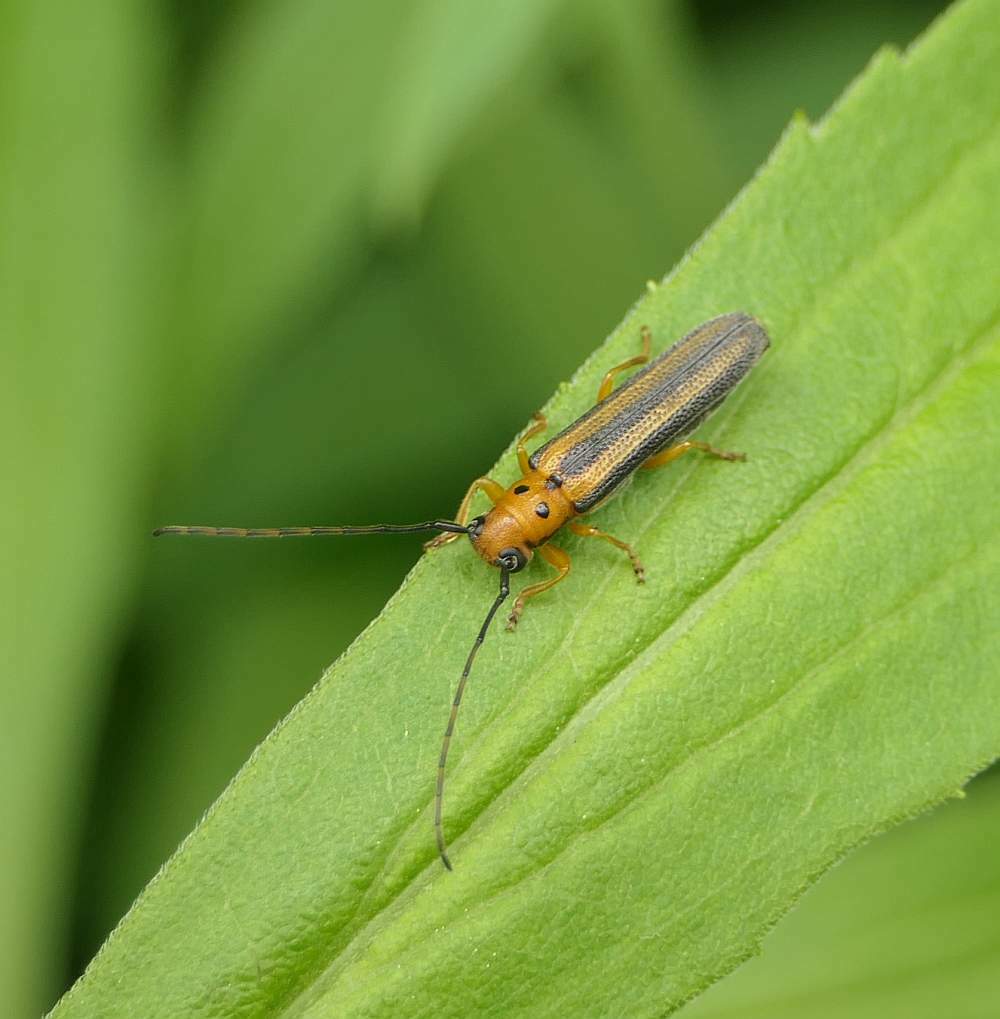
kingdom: Animalia
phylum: Arthropoda
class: Insecta
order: Coleoptera
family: Cerambycidae
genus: Oberea
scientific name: Oberea tripunctata
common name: Dogwood twig borer
